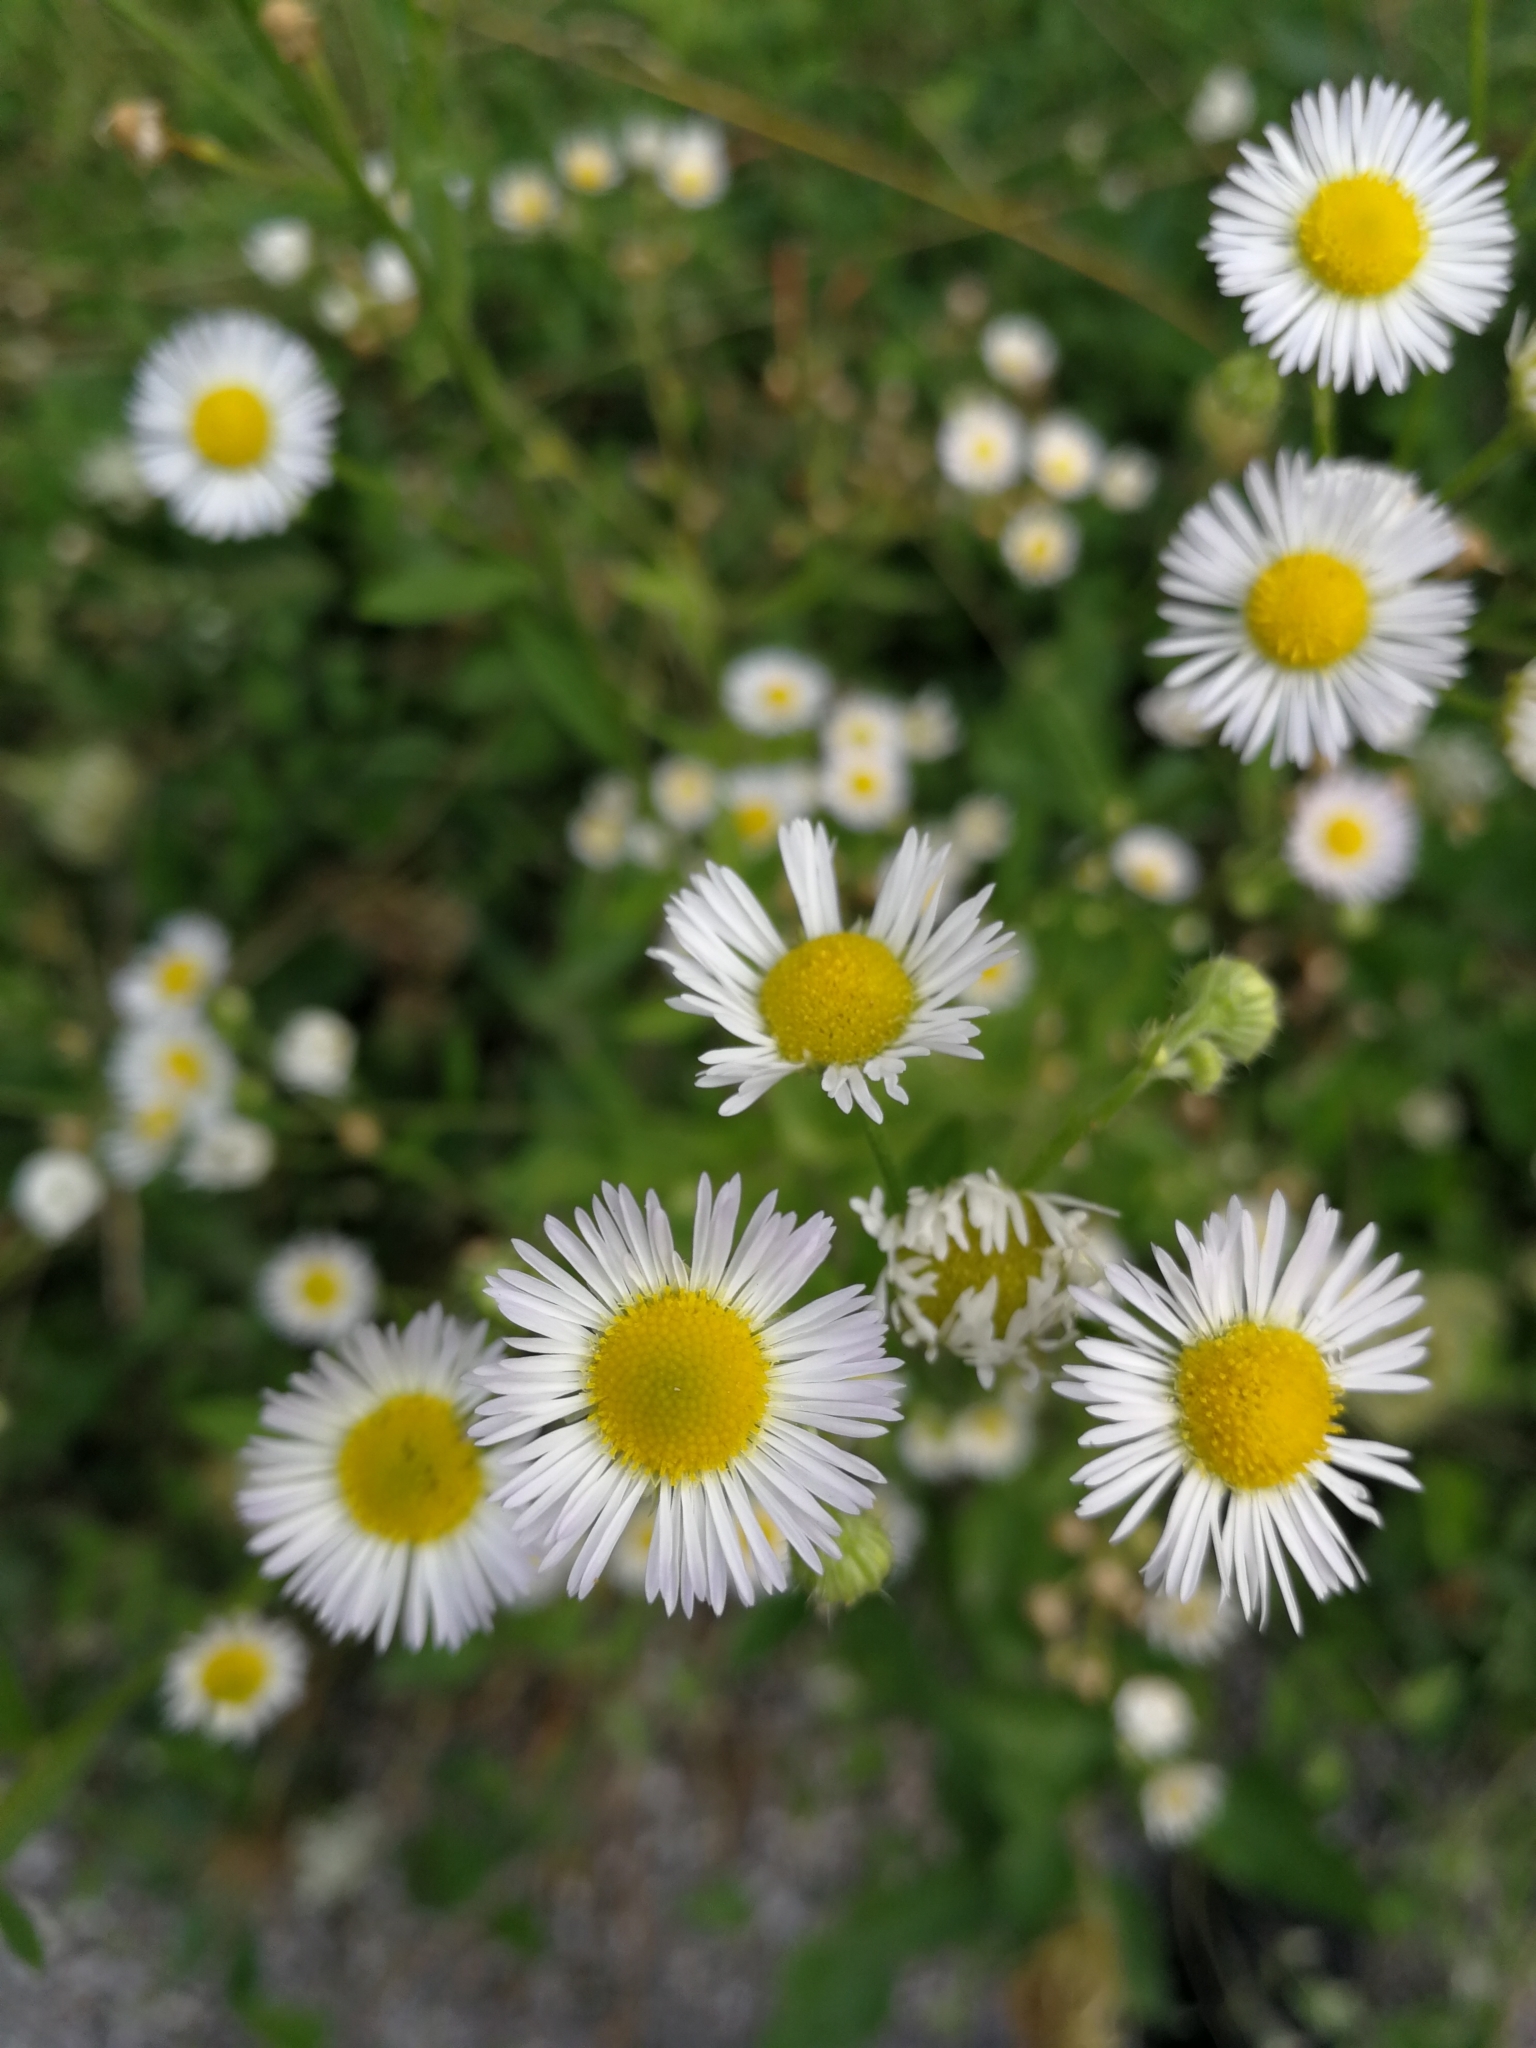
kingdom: Plantae
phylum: Tracheophyta
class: Magnoliopsida
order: Asterales
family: Asteraceae
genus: Erigeron
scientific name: Erigeron annuus
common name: Tall fleabane
